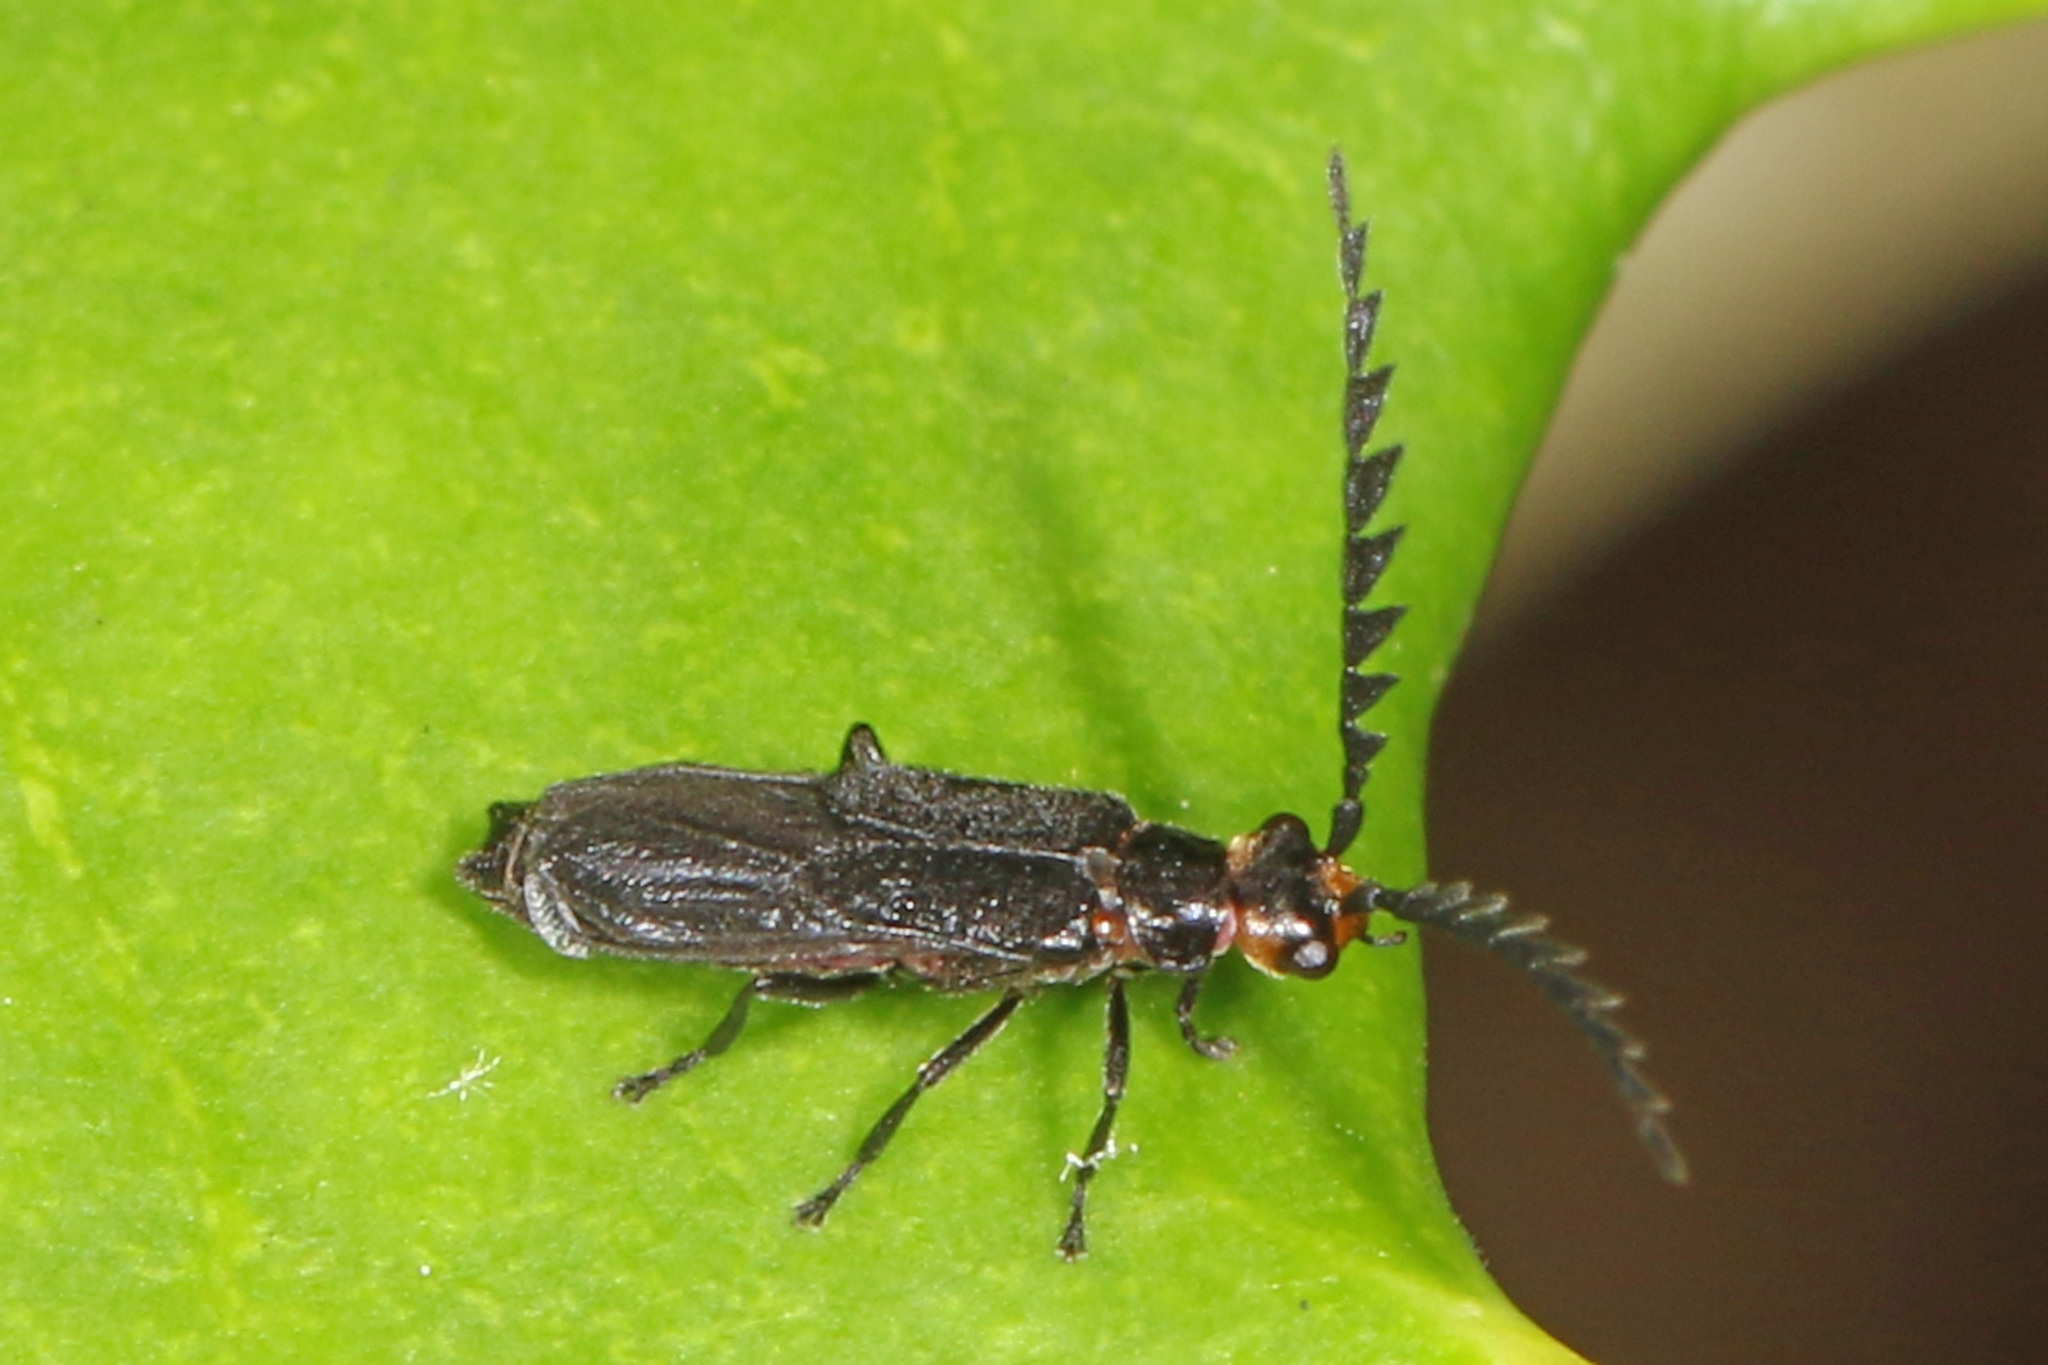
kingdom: Animalia
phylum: Arthropoda
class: Insecta
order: Coleoptera
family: Cantharidae
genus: Tytthonyx
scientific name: Tytthonyx erythrocephalus
